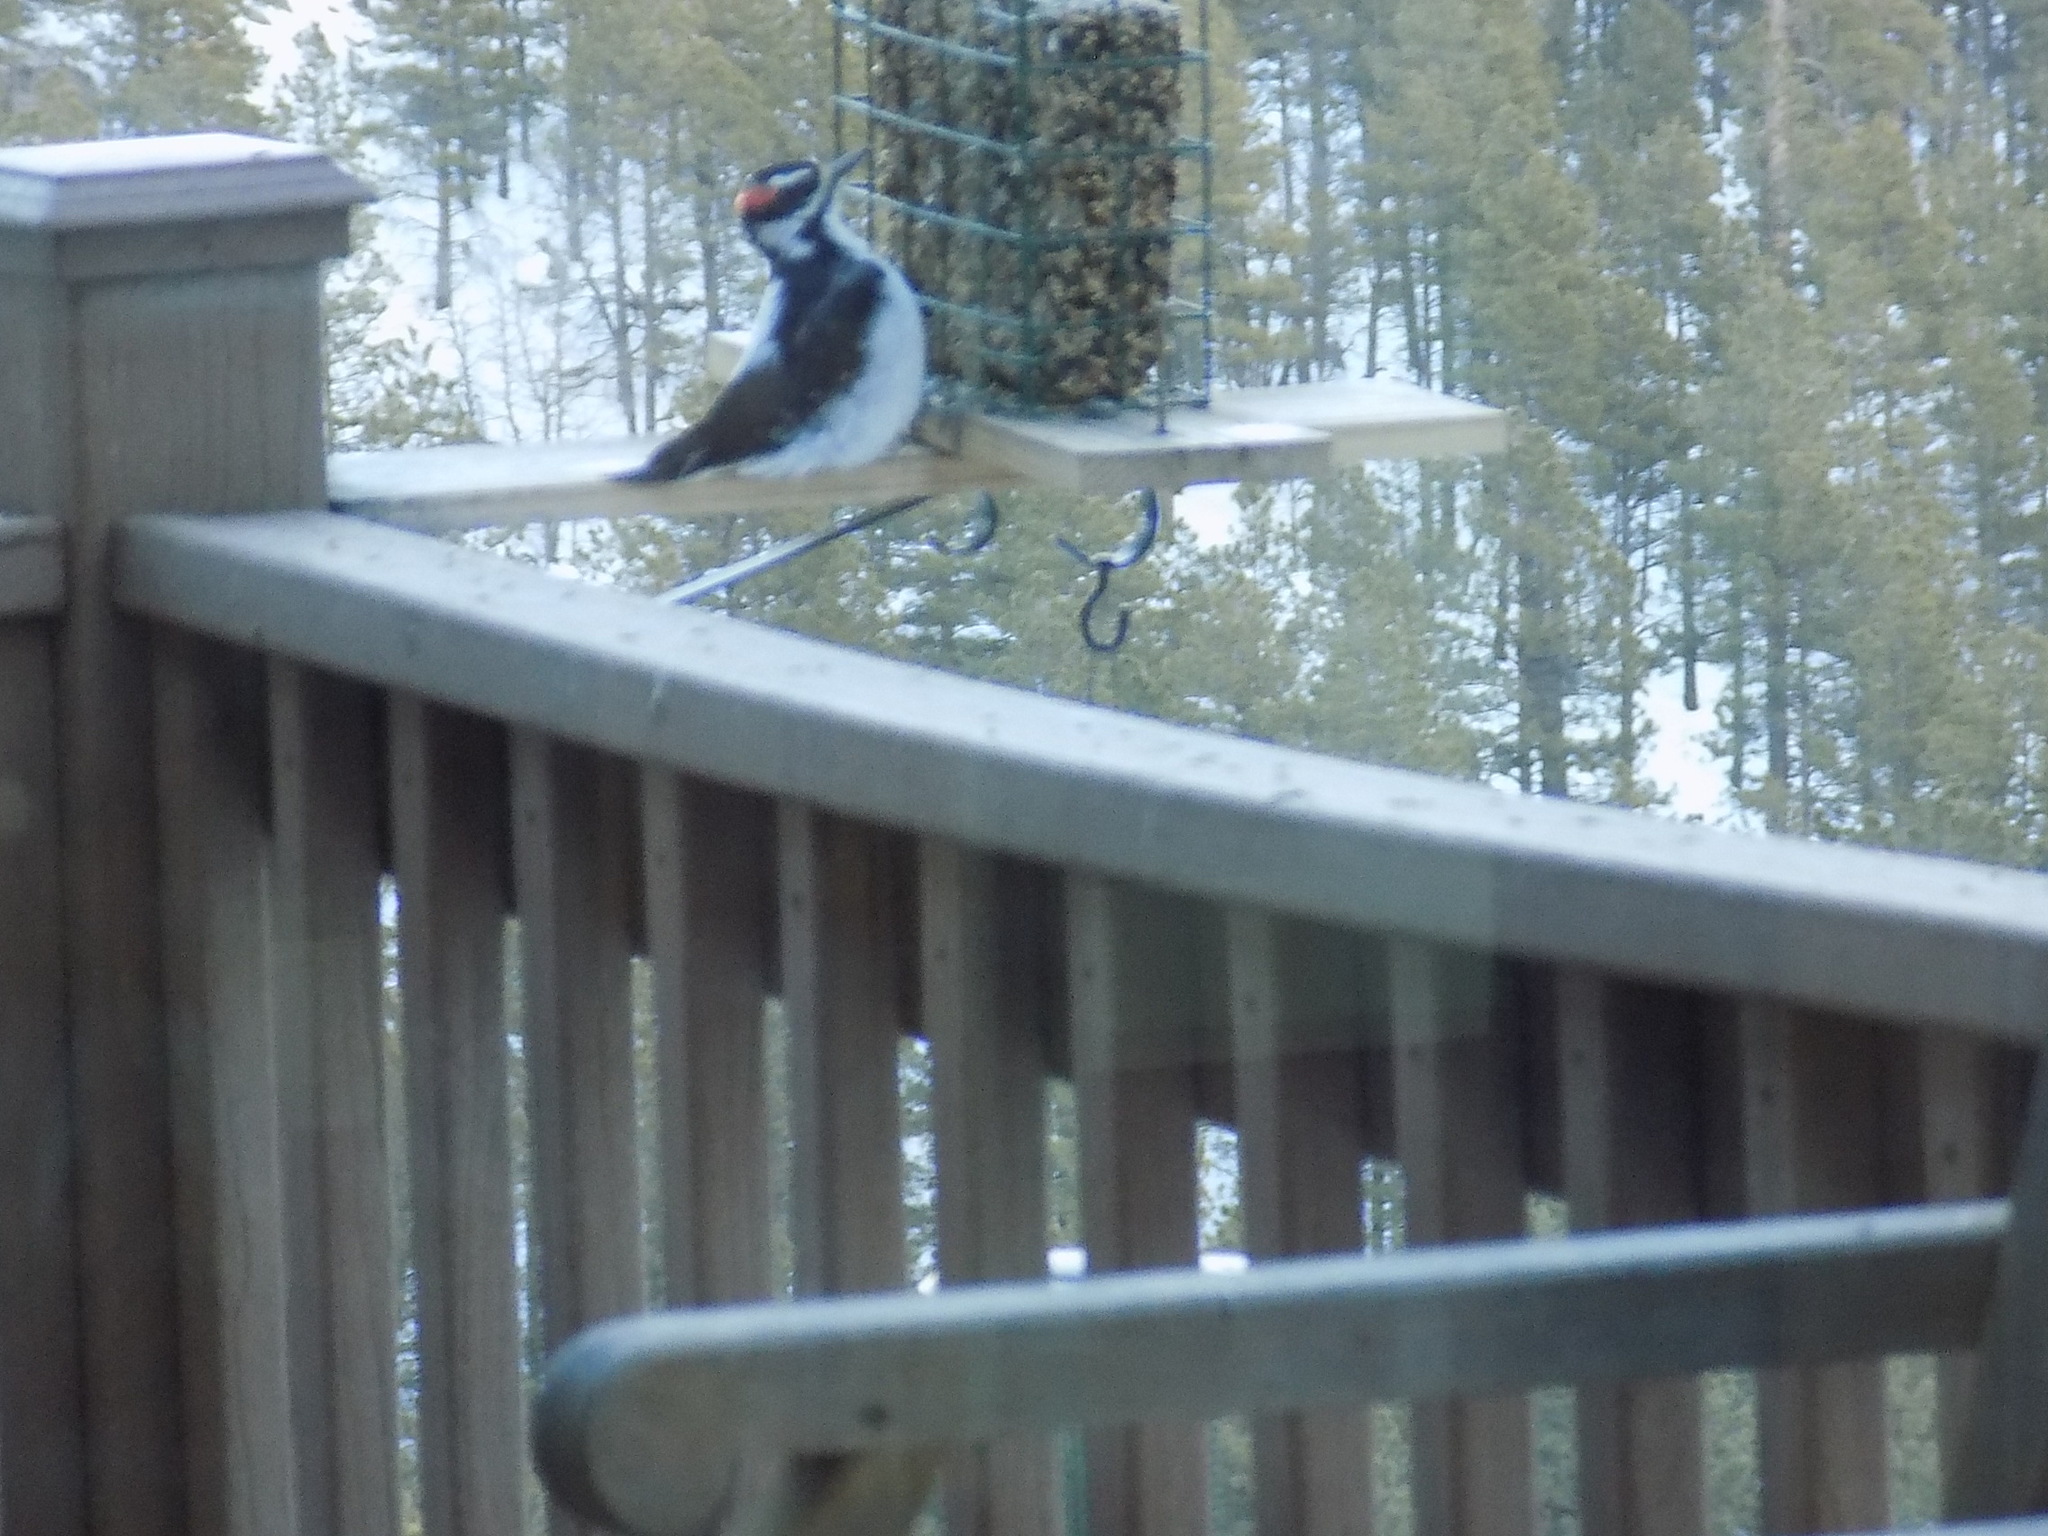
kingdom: Animalia
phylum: Chordata
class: Aves
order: Piciformes
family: Picidae
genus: Leuconotopicus
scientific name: Leuconotopicus villosus
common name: Hairy woodpecker
